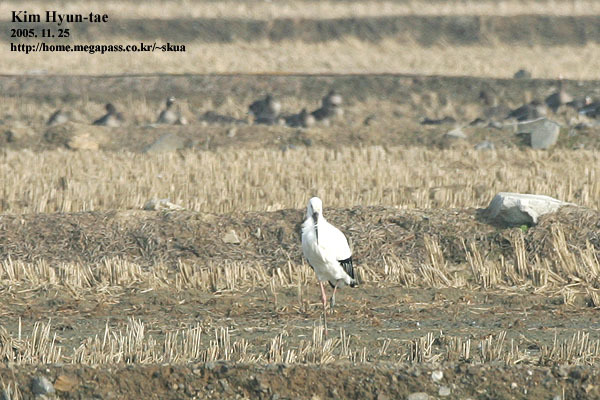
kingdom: Animalia
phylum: Chordata
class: Aves
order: Ciconiiformes
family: Ciconiidae
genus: Ciconia
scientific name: Ciconia boyciana
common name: Oriental stork
